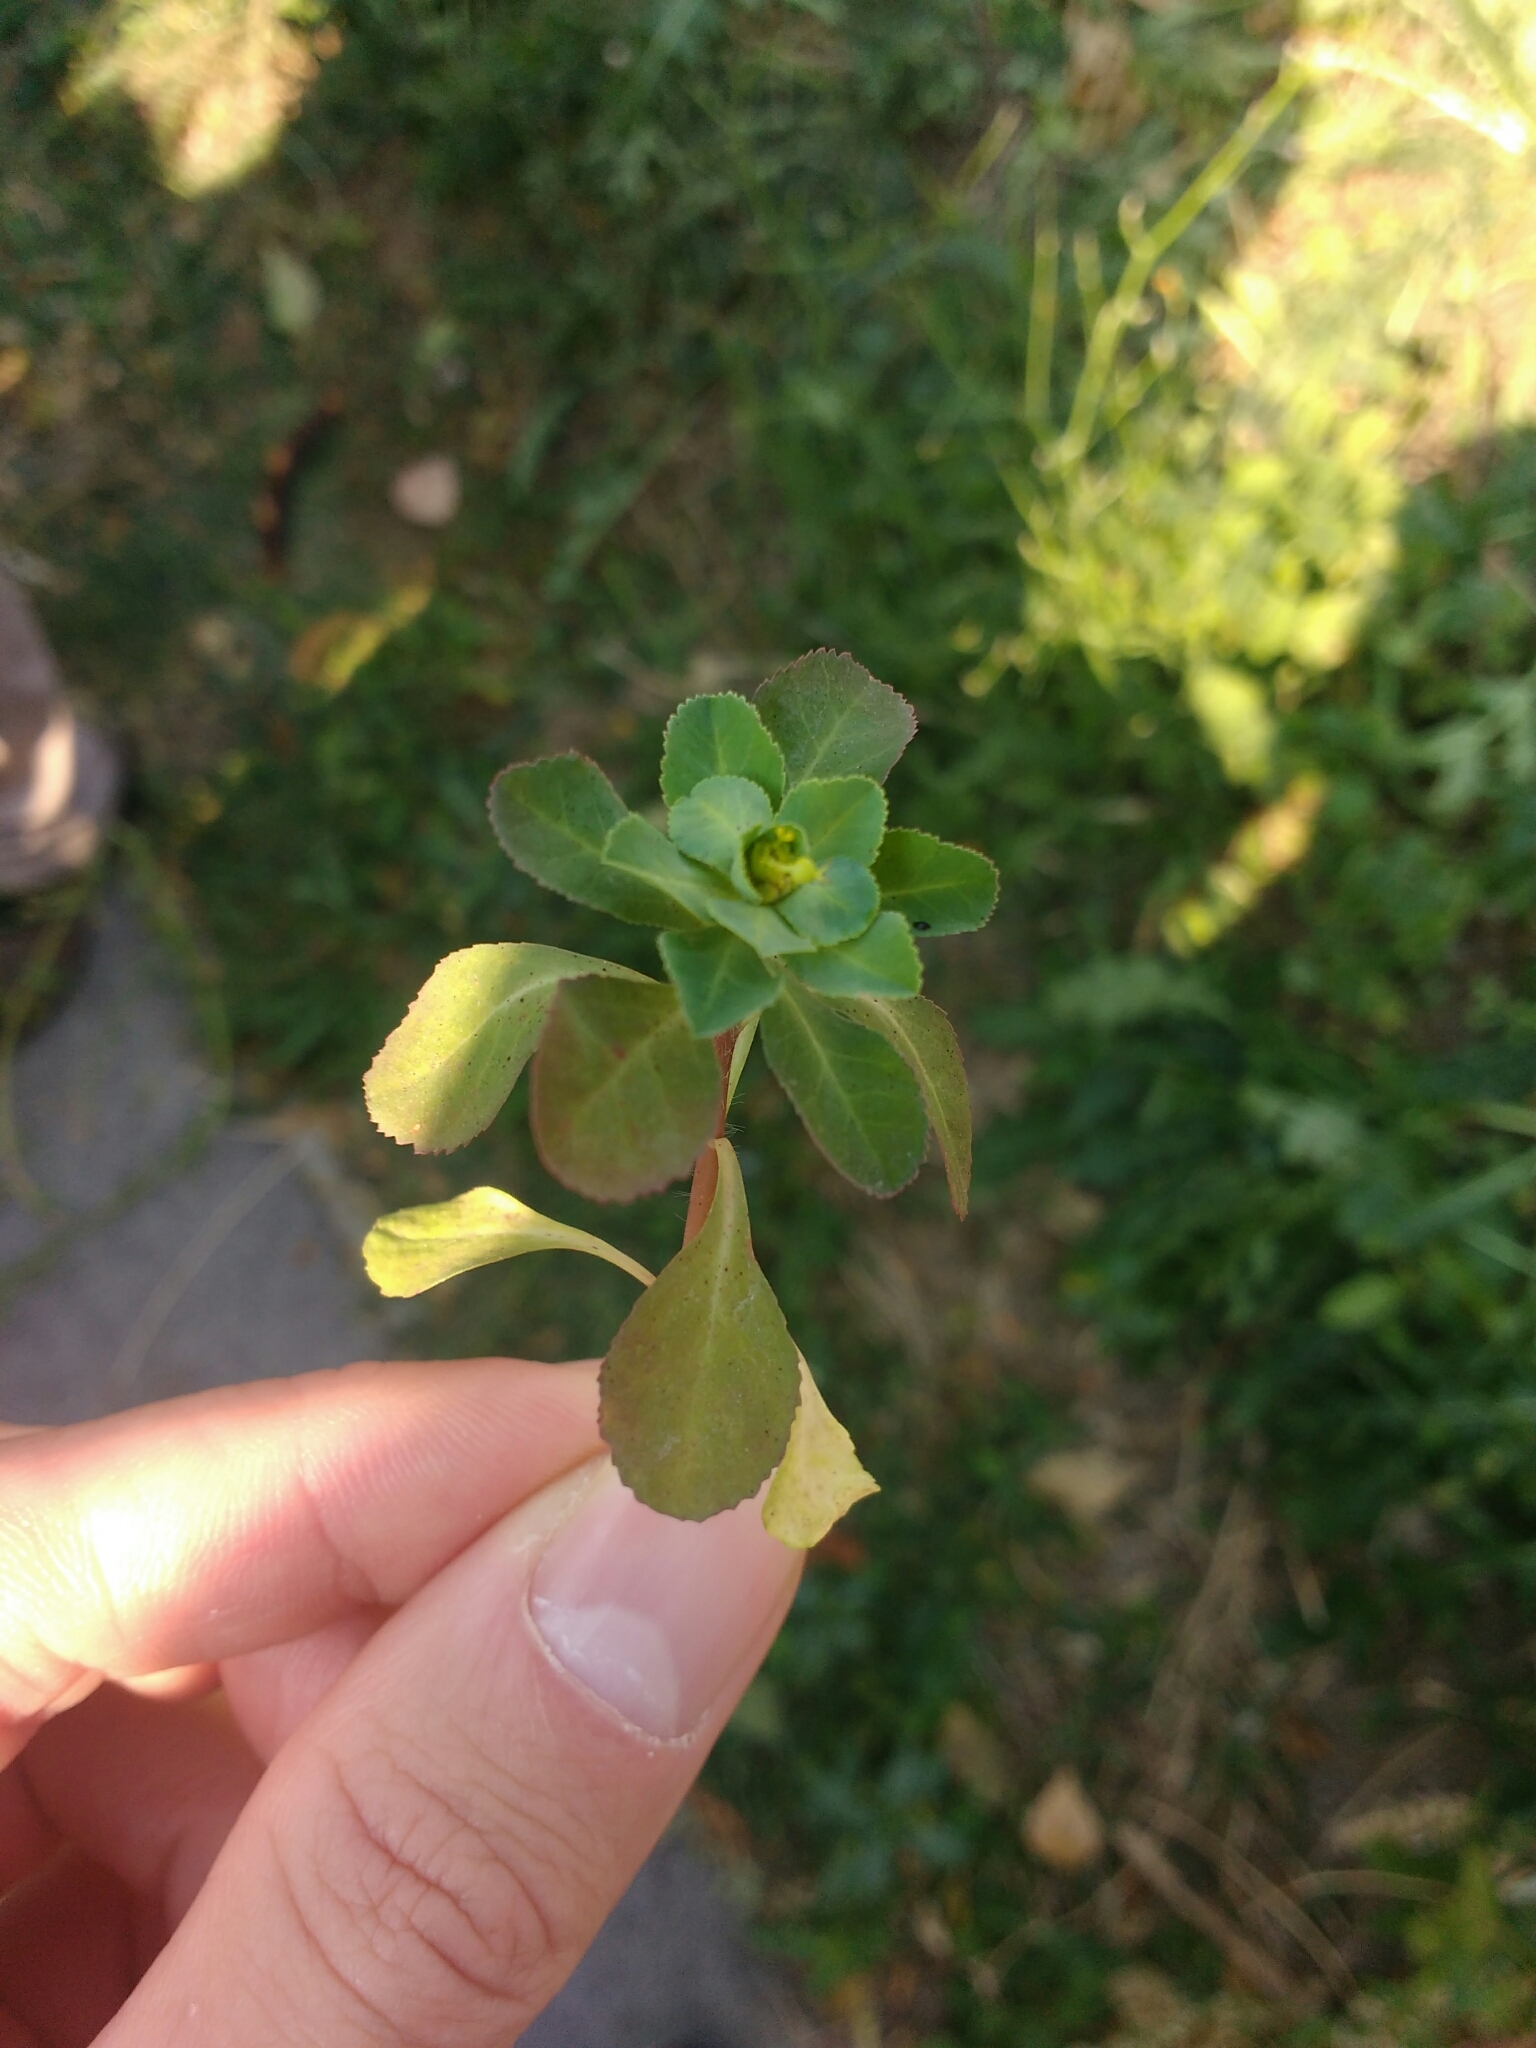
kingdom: Plantae
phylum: Tracheophyta
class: Magnoliopsida
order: Malpighiales
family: Euphorbiaceae
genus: Euphorbia
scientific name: Euphorbia helioscopia
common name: Sun spurge
